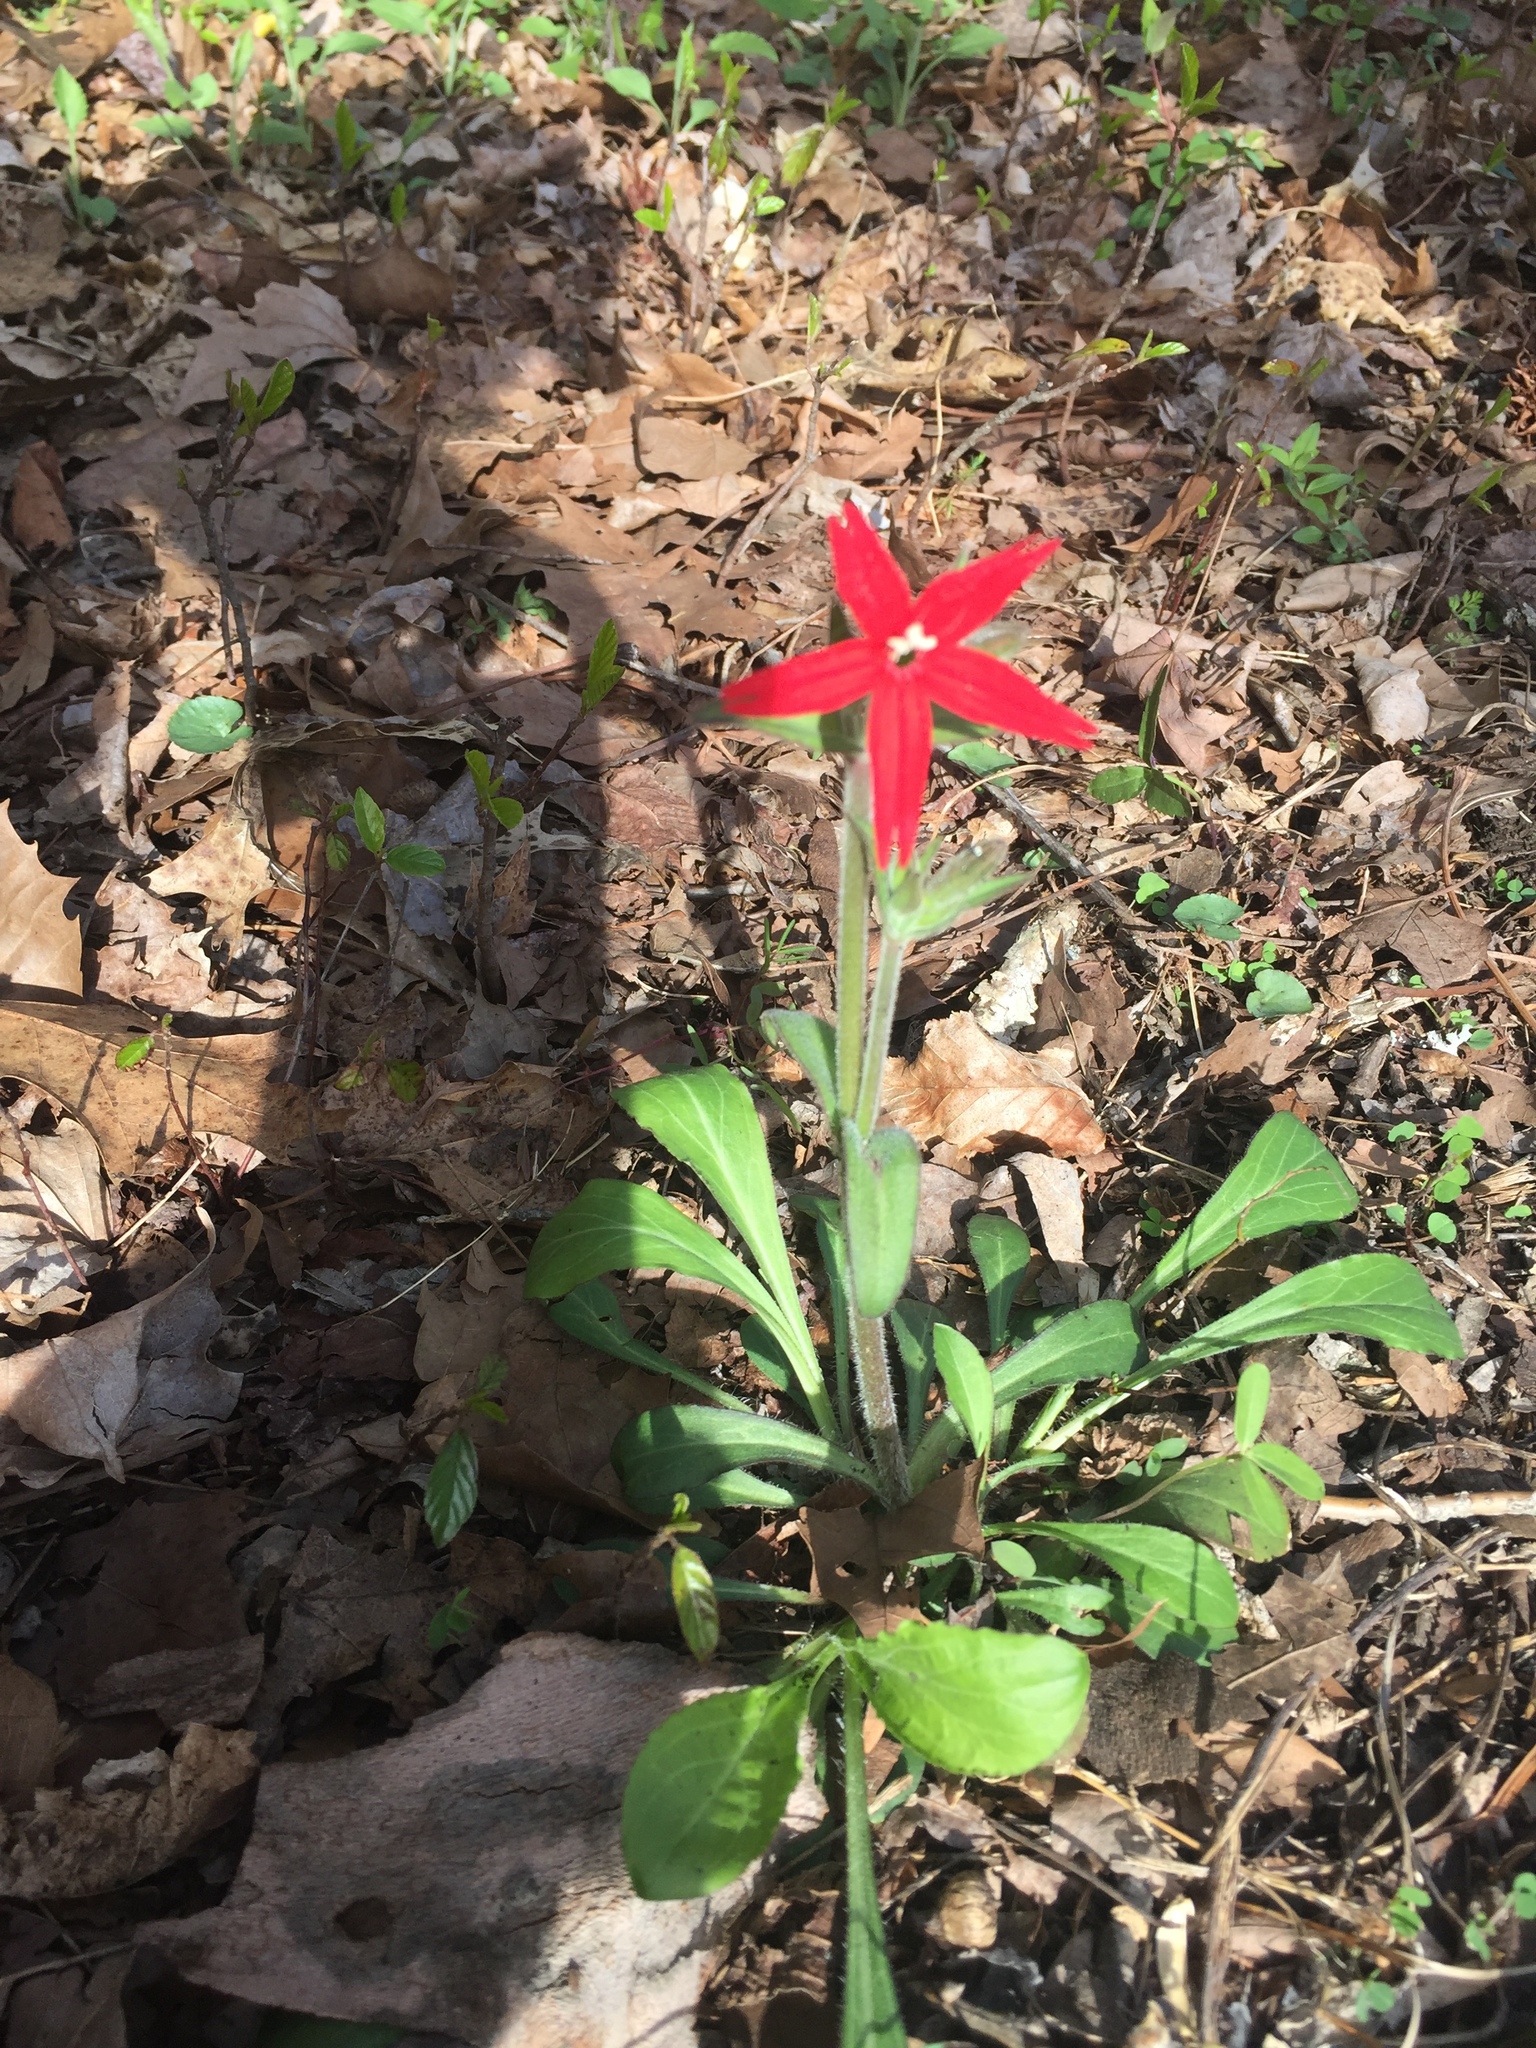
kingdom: Plantae
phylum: Tracheophyta
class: Magnoliopsida
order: Caryophyllales
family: Caryophyllaceae
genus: Silene
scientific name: Silene virginica
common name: Fire-pink
